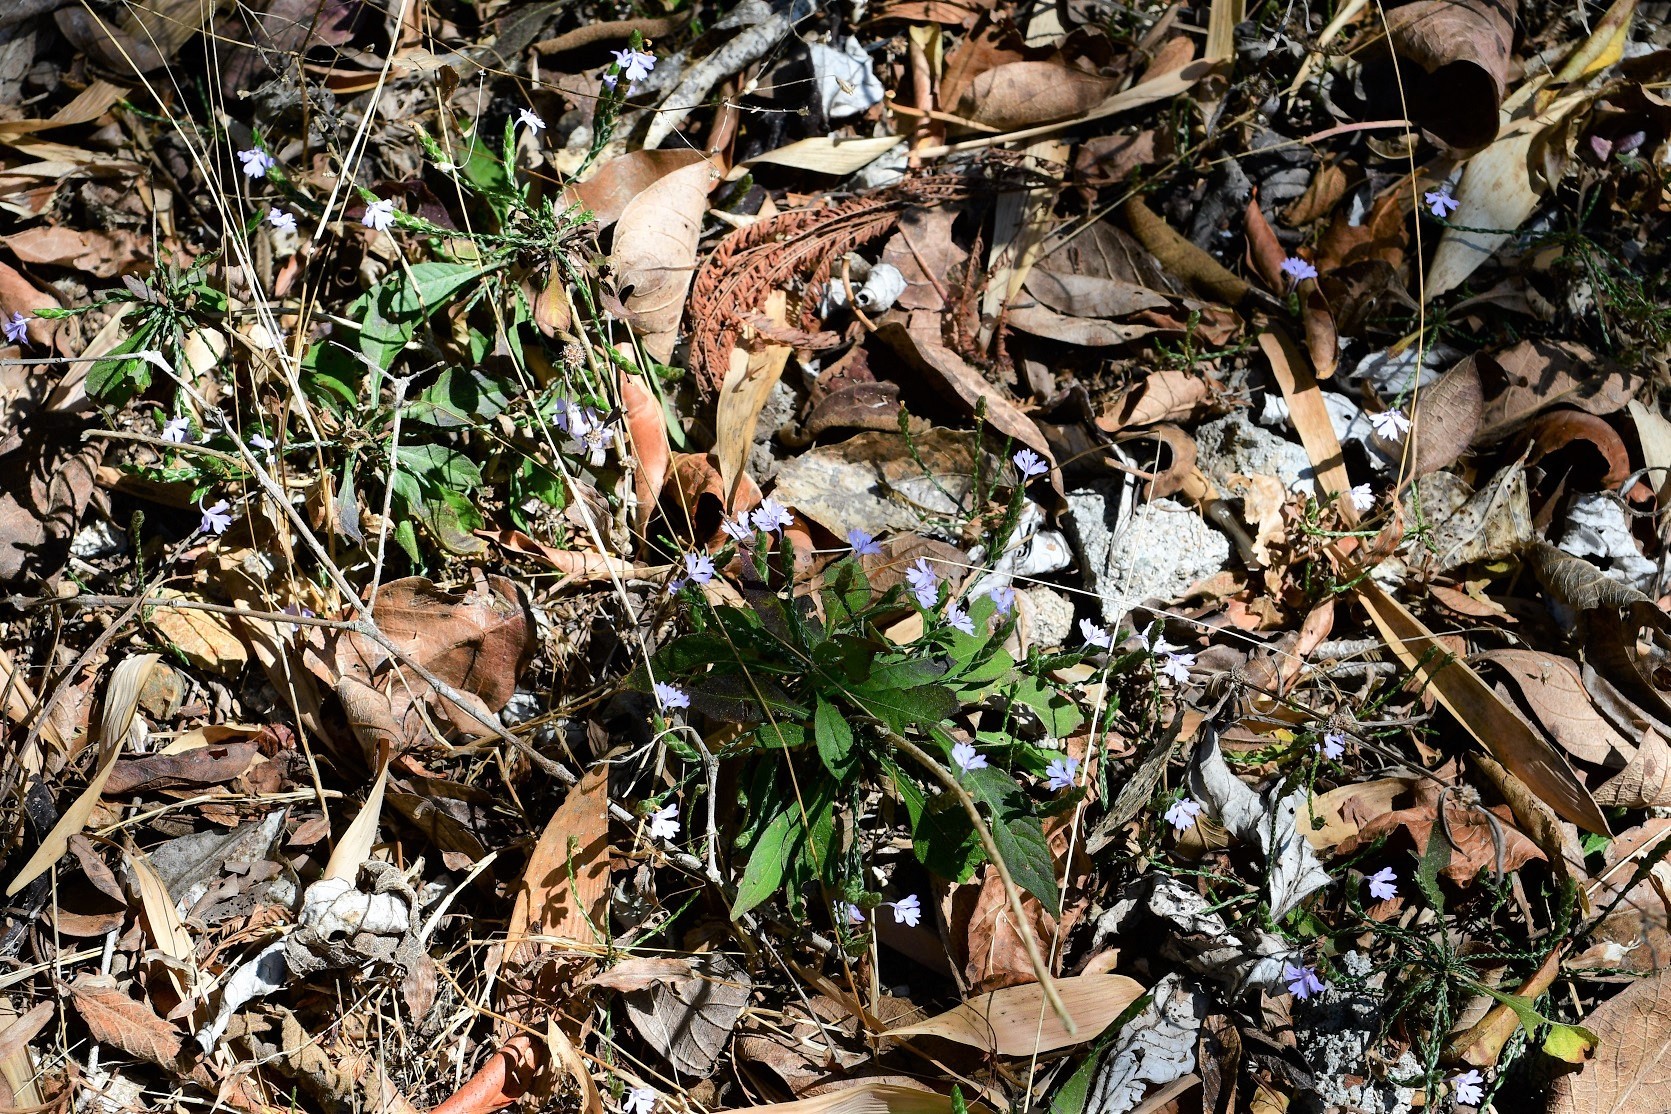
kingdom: Plantae
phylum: Tracheophyta
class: Magnoliopsida
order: Lamiales
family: Acanthaceae
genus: Elytraria
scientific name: Elytraria imbricata
